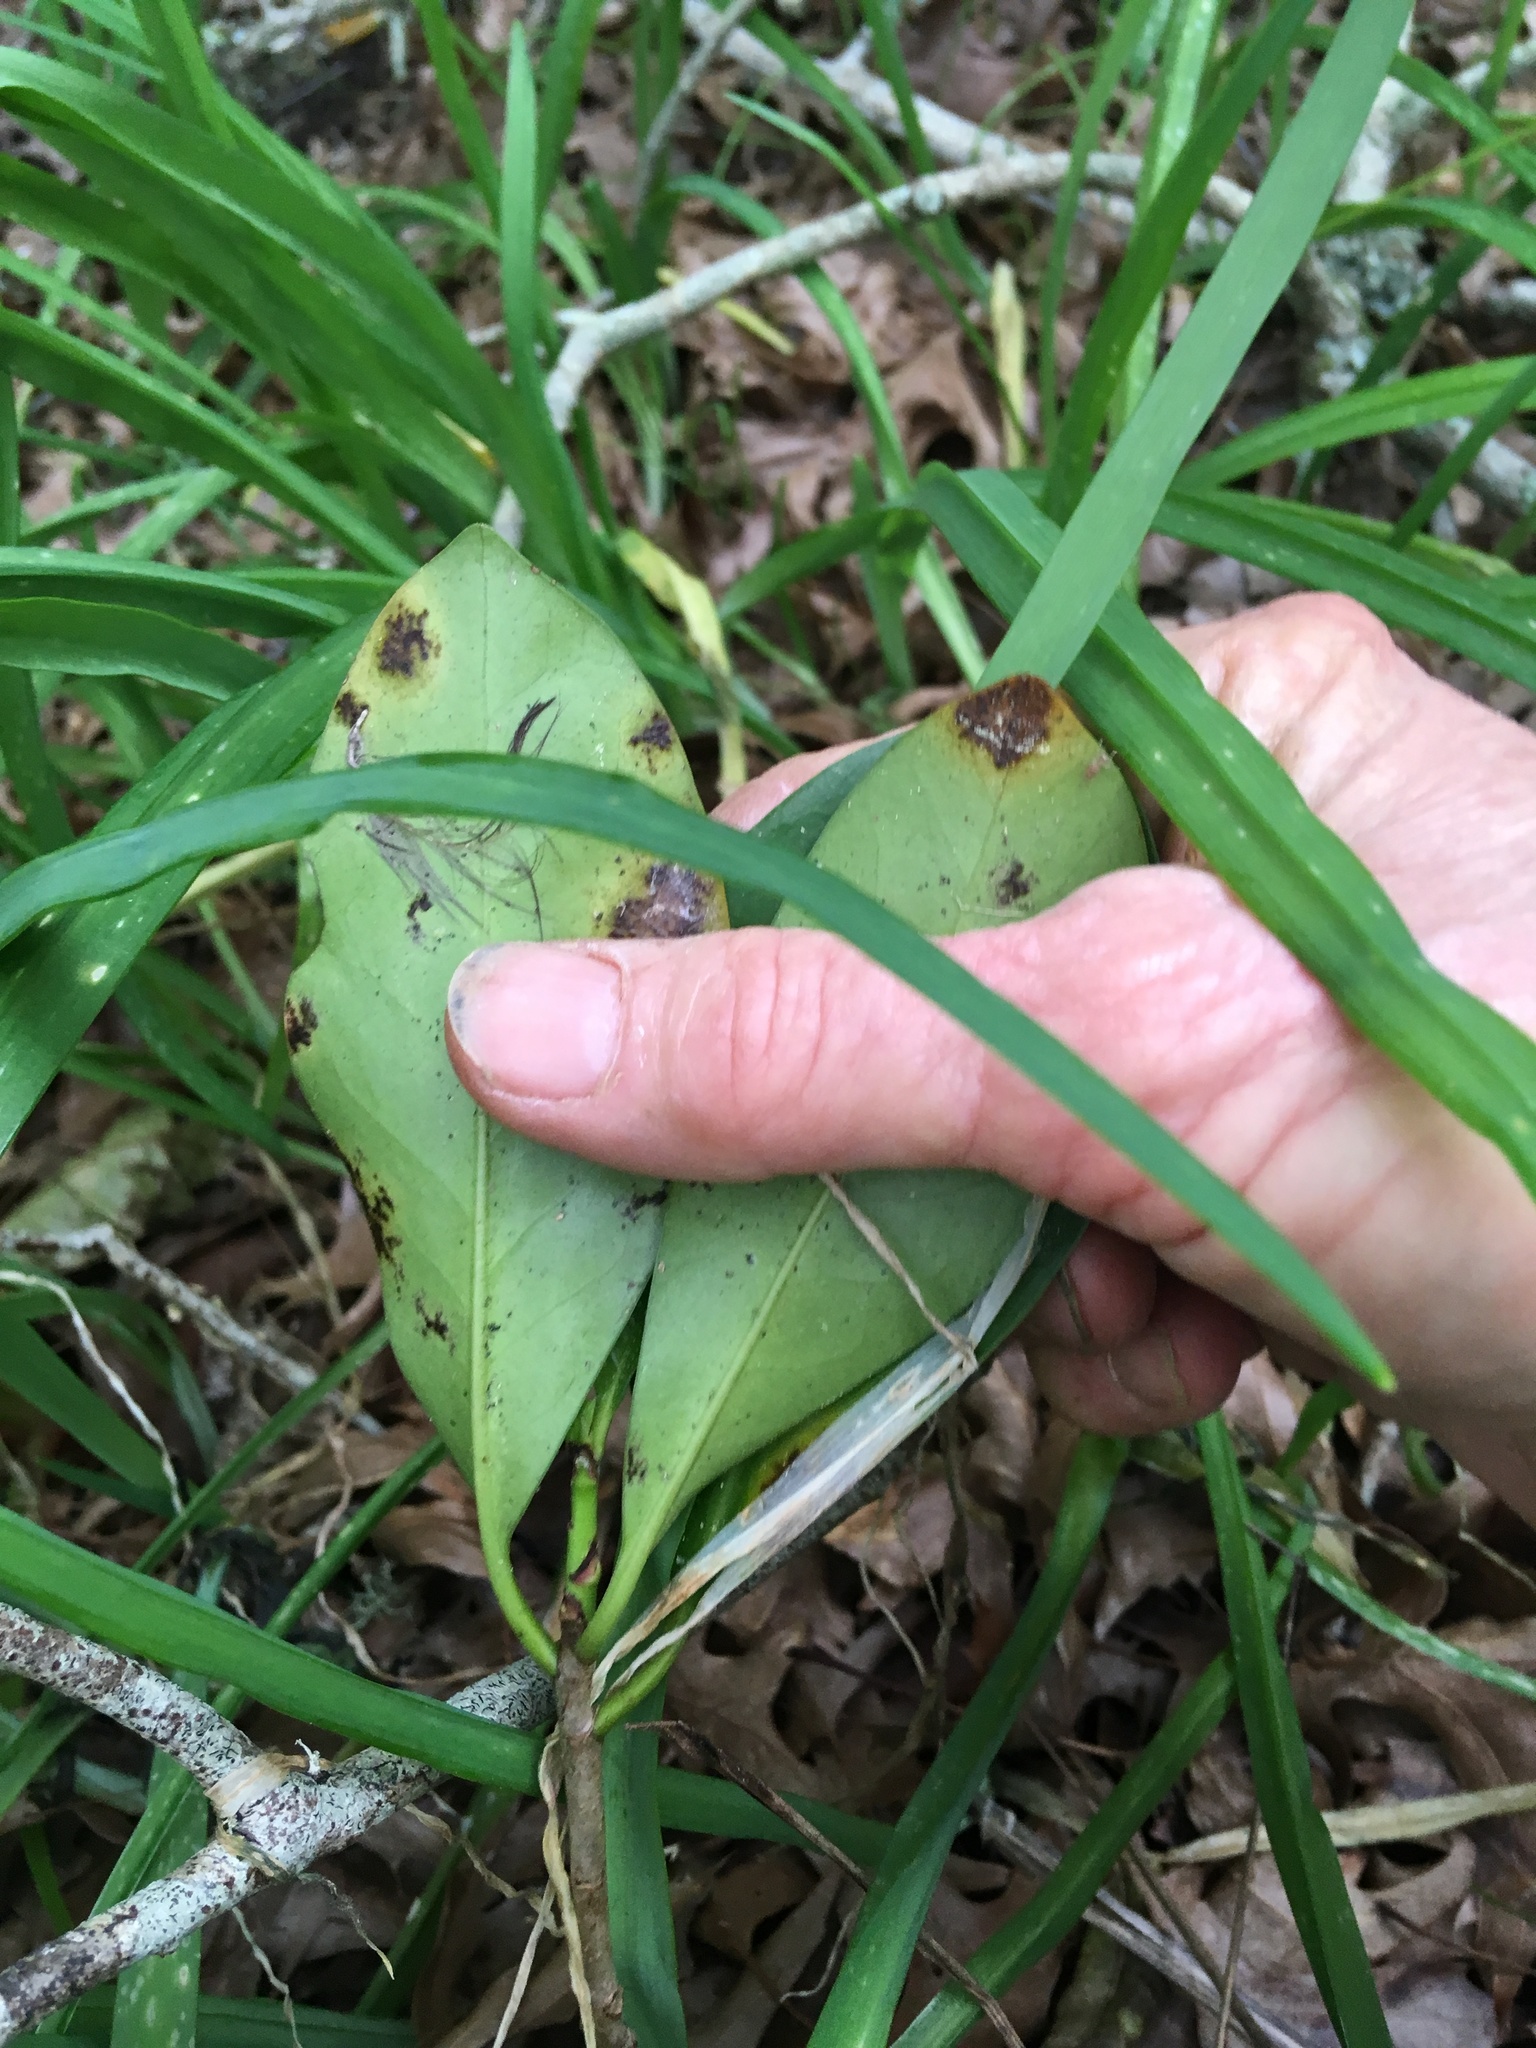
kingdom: Plantae
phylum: Tracheophyta
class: Magnoliopsida
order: Cucurbitales
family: Corynocarpaceae
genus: Corynocarpus
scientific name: Corynocarpus laevigatus
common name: New zealand laurel
